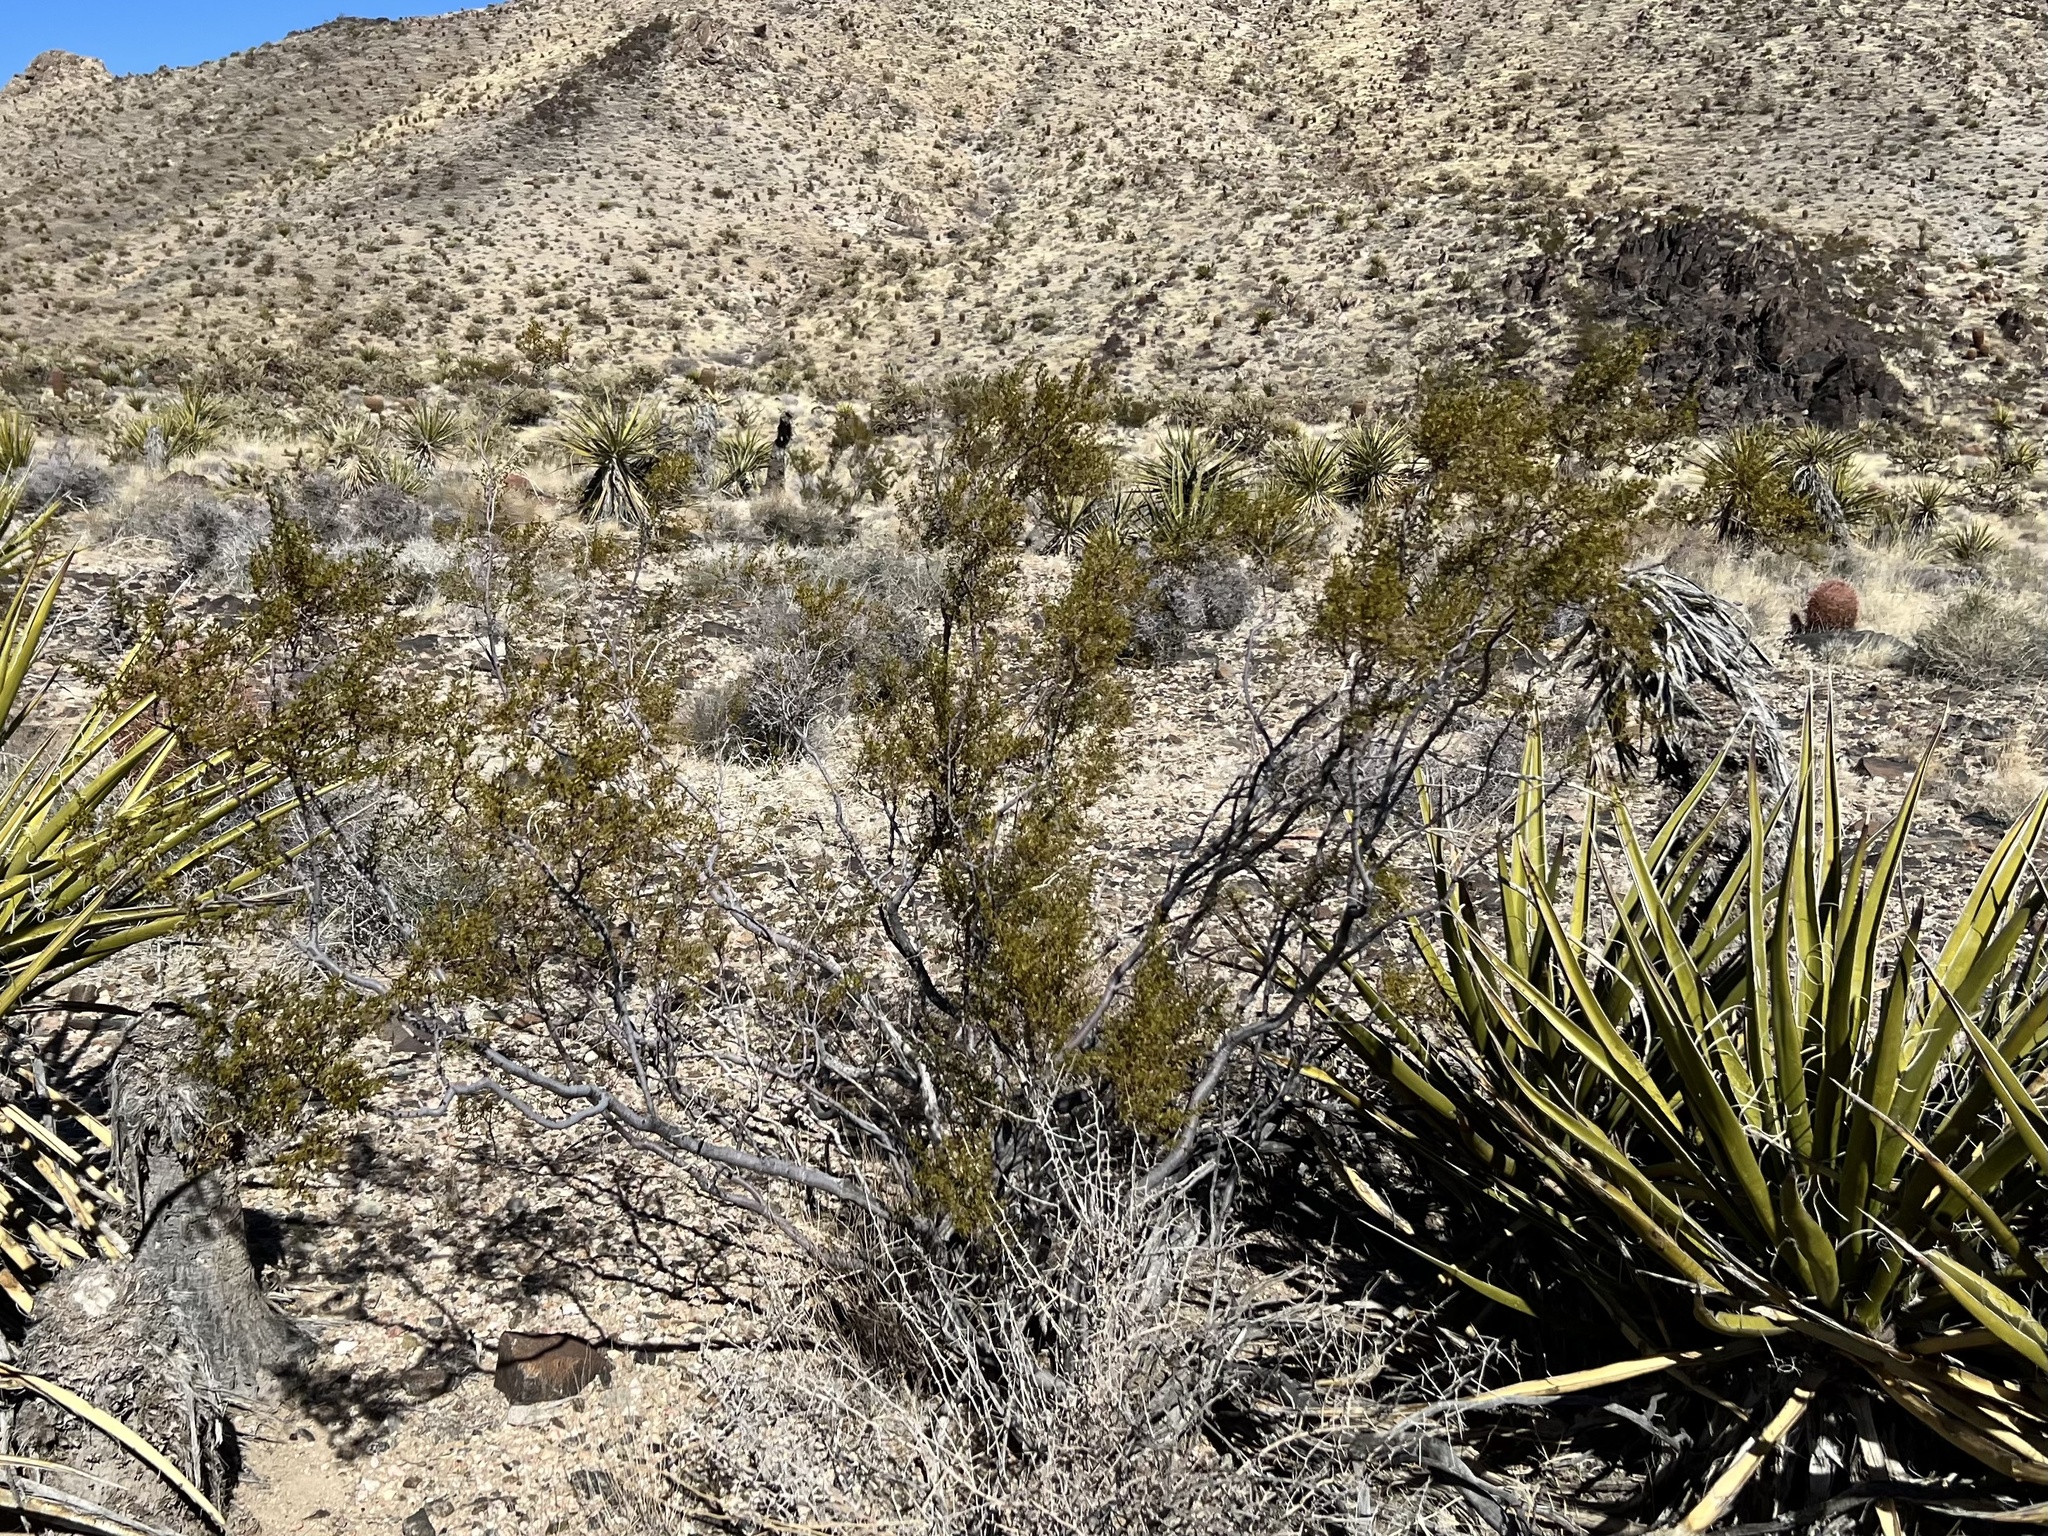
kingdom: Plantae
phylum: Tracheophyta
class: Magnoliopsida
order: Zygophyllales
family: Zygophyllaceae
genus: Larrea
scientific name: Larrea tridentata
